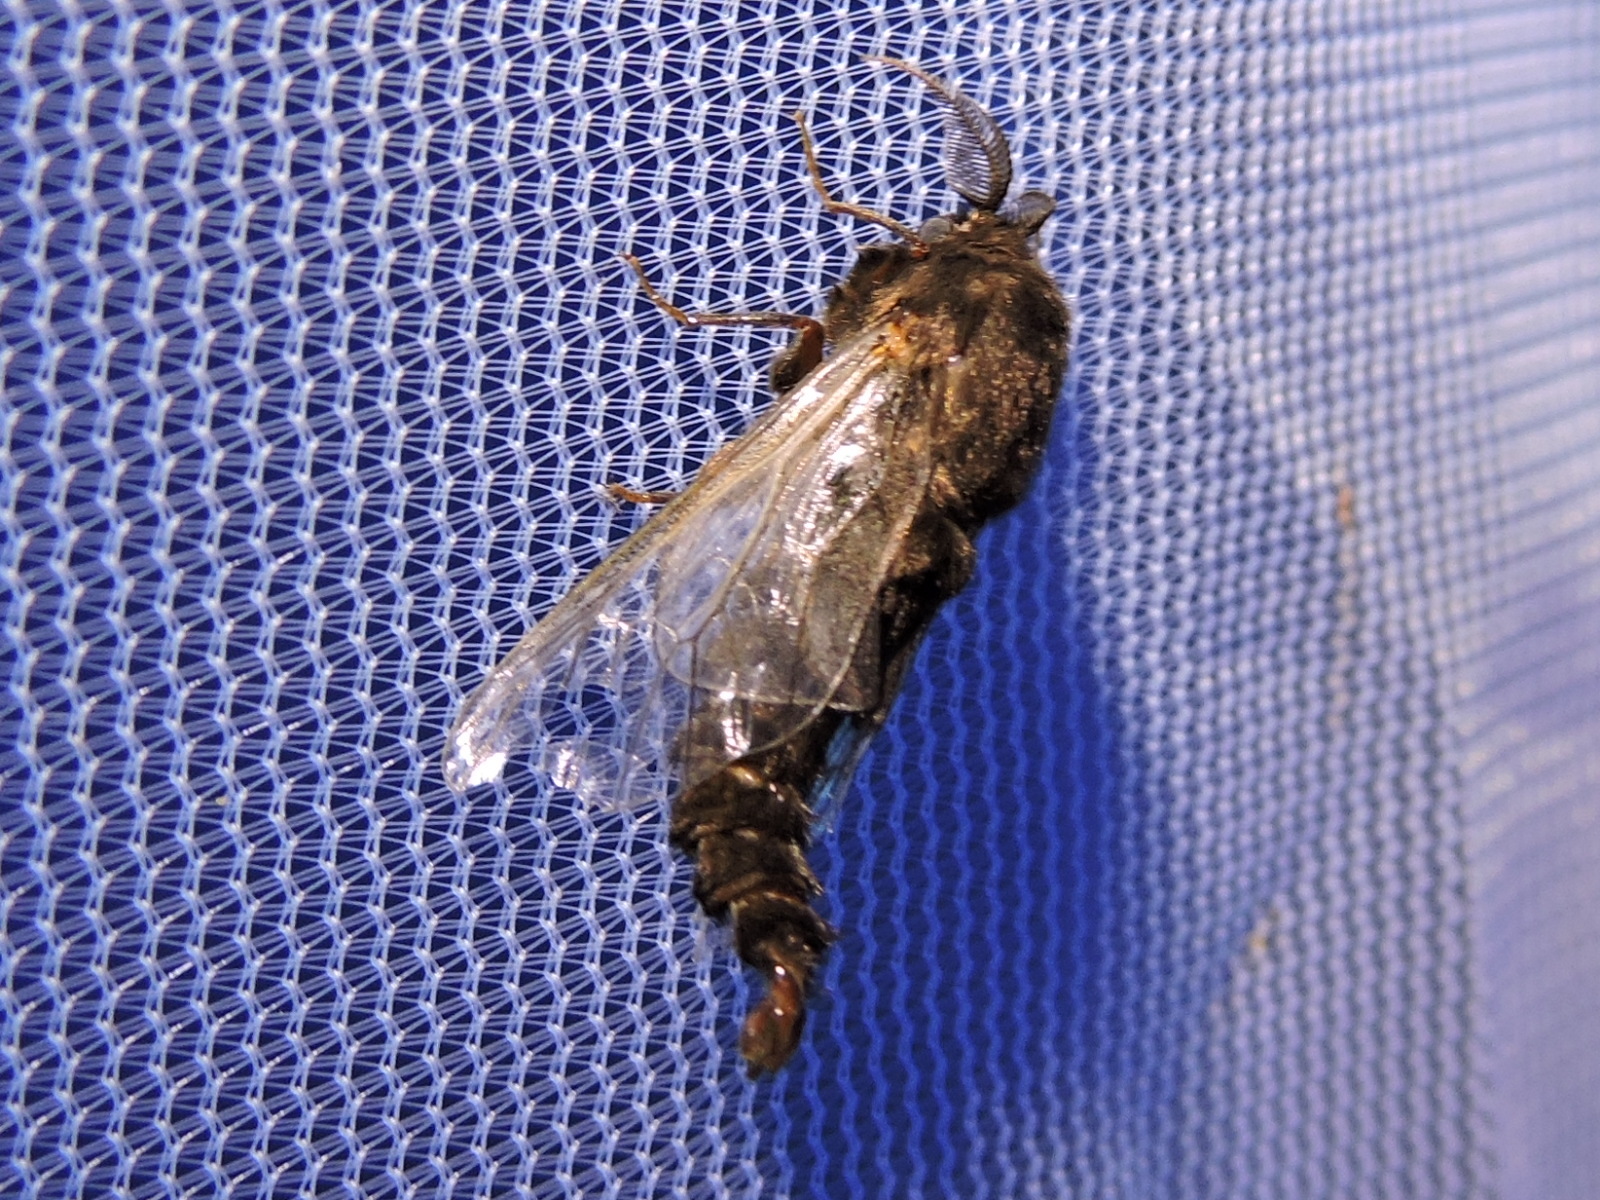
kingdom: Animalia
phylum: Arthropoda
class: Insecta
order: Lepidoptera
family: Psychidae
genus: Thyridopteryx
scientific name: Thyridopteryx ephemeraeformis
